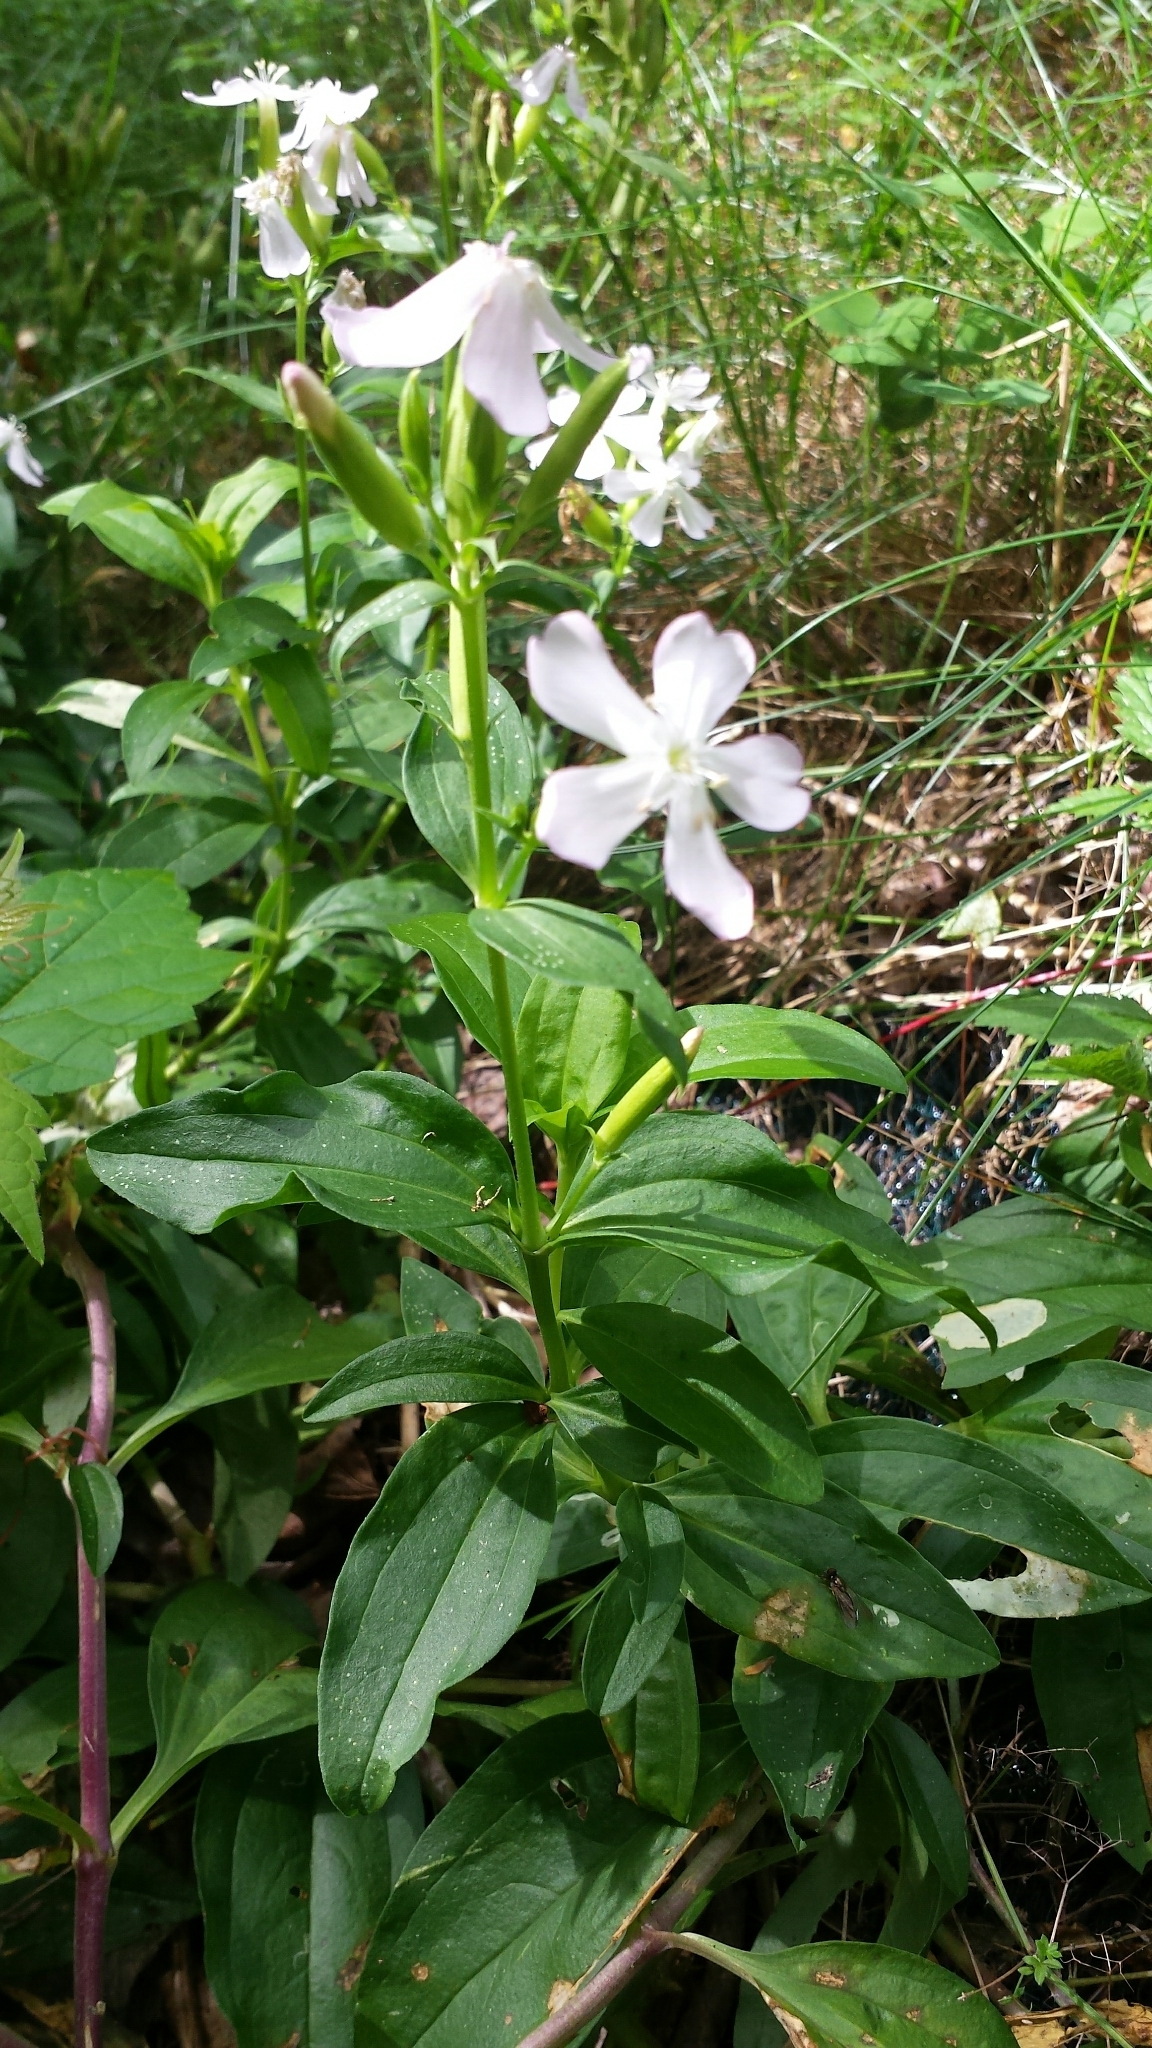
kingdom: Plantae
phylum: Tracheophyta
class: Magnoliopsida
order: Caryophyllales
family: Caryophyllaceae
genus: Saponaria
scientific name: Saponaria officinalis
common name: Soapwort
